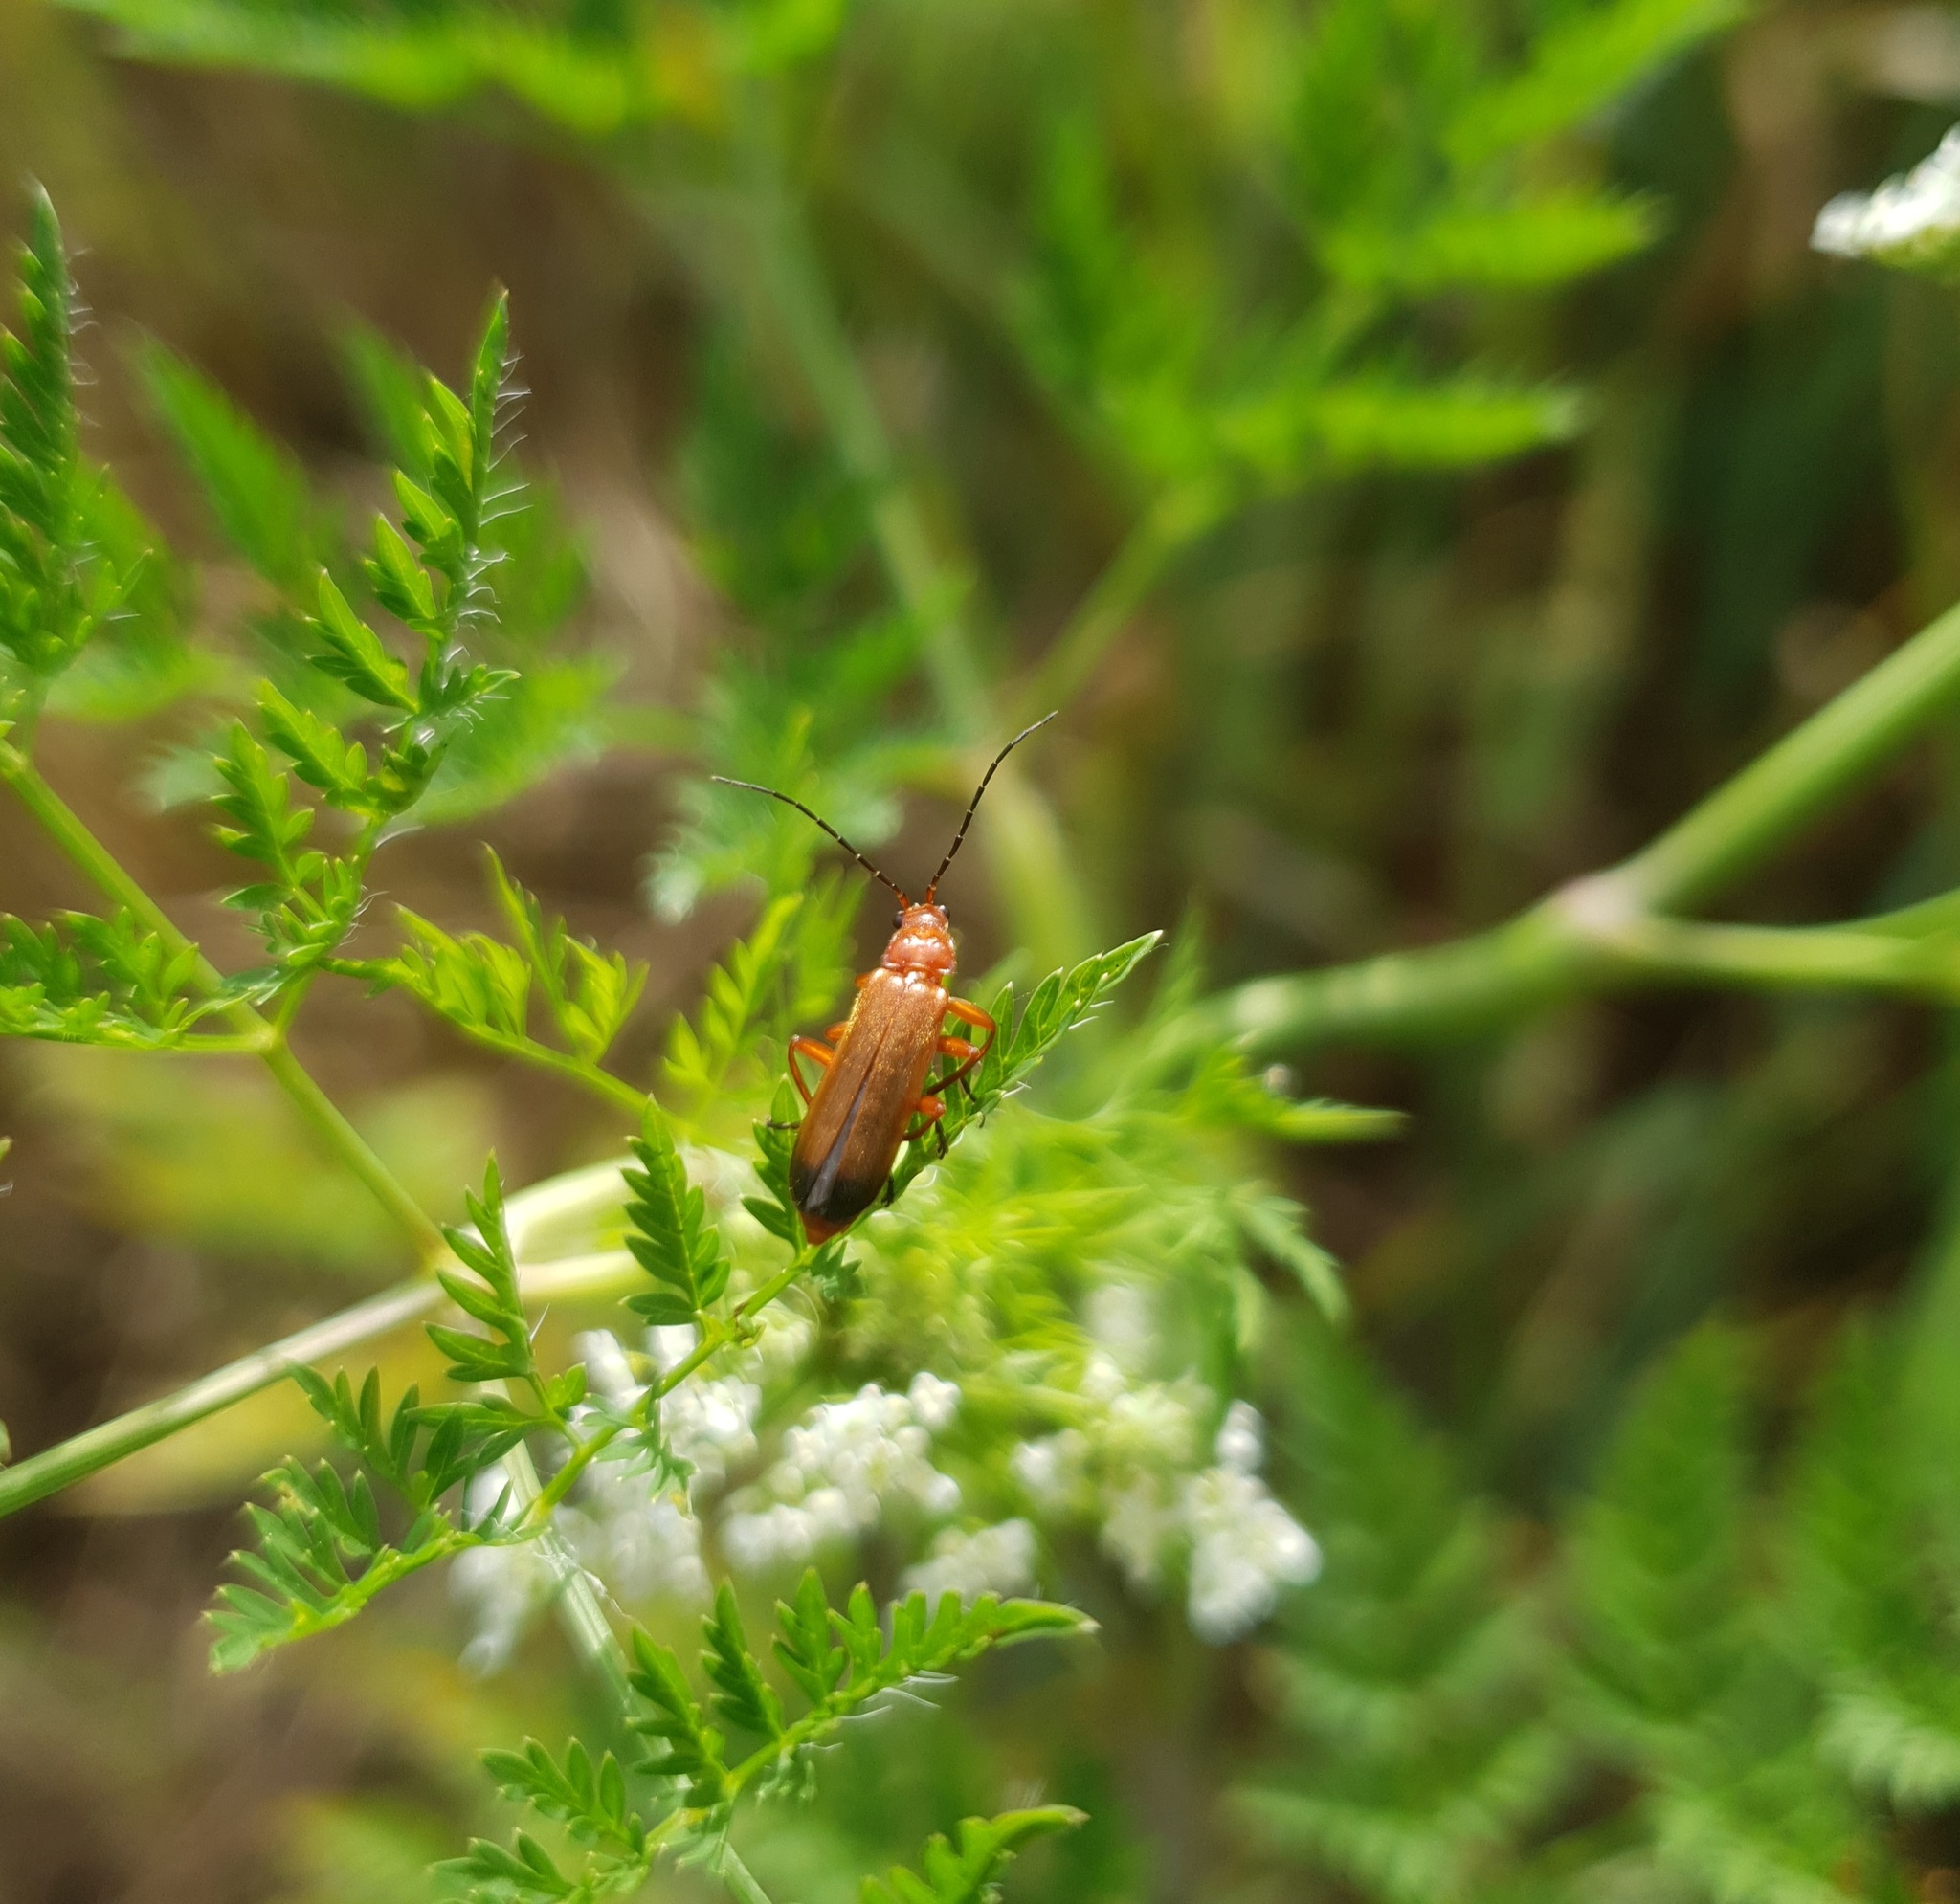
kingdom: Animalia
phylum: Arthropoda
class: Insecta
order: Coleoptera
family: Cantharidae
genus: Rhagonycha
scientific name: Rhagonycha fulva
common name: Common red soldier beetle
